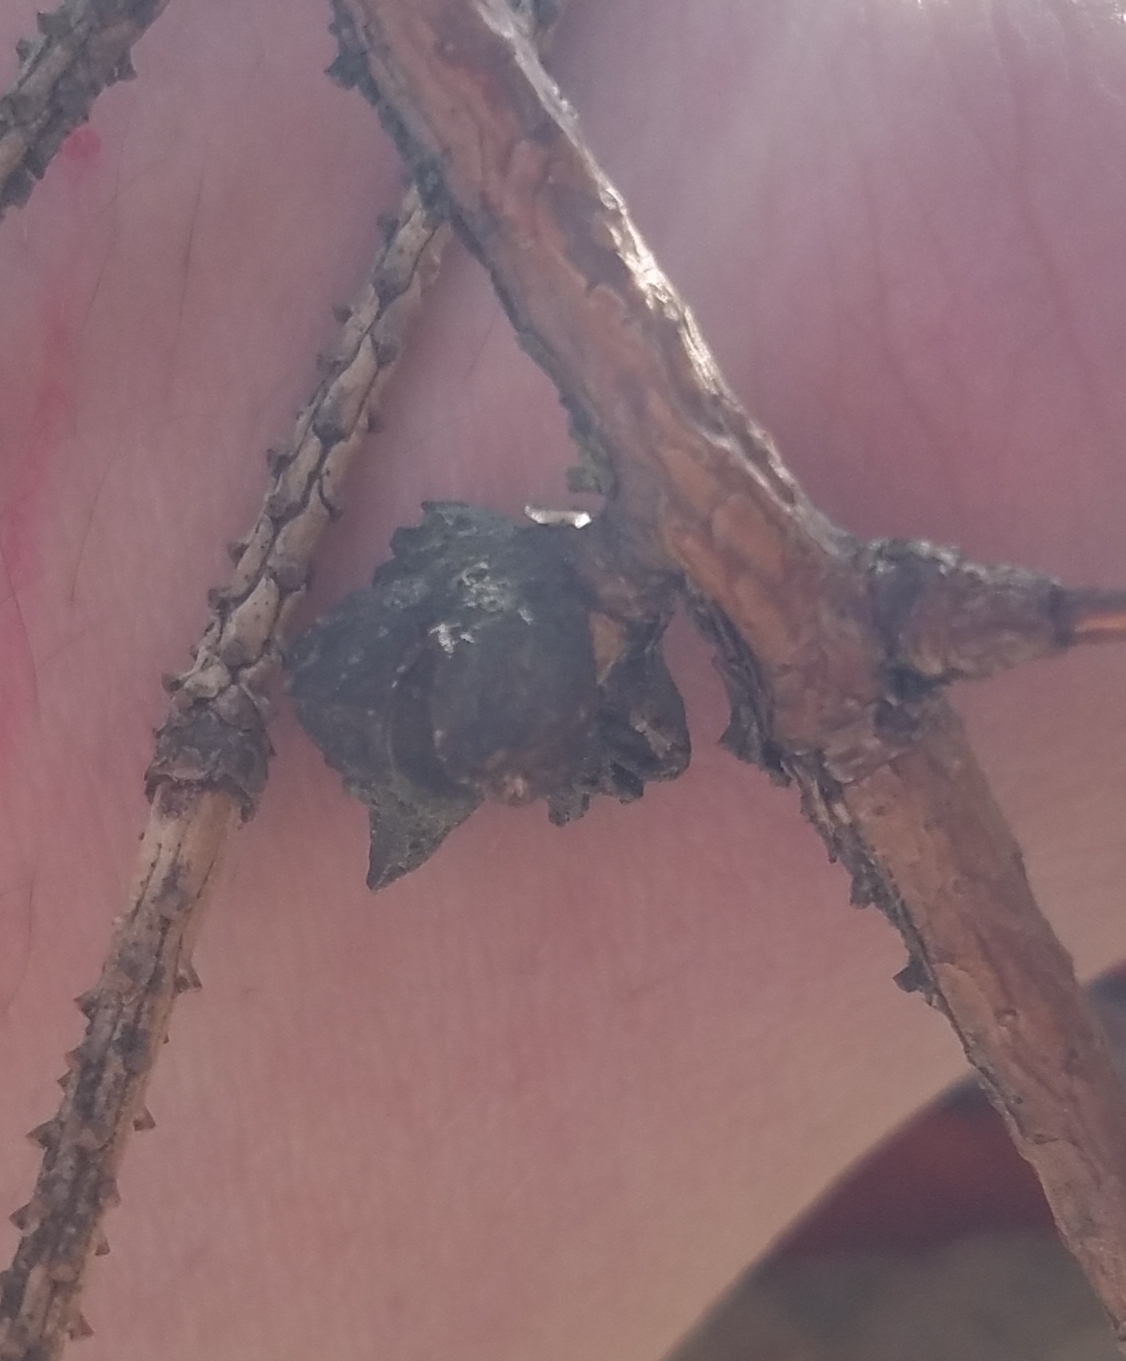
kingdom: Animalia
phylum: Arthropoda
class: Insecta
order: Hemiptera
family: Adelgidae
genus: Adelges
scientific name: Adelges abietis
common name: Eastern spruce gall adelgid
